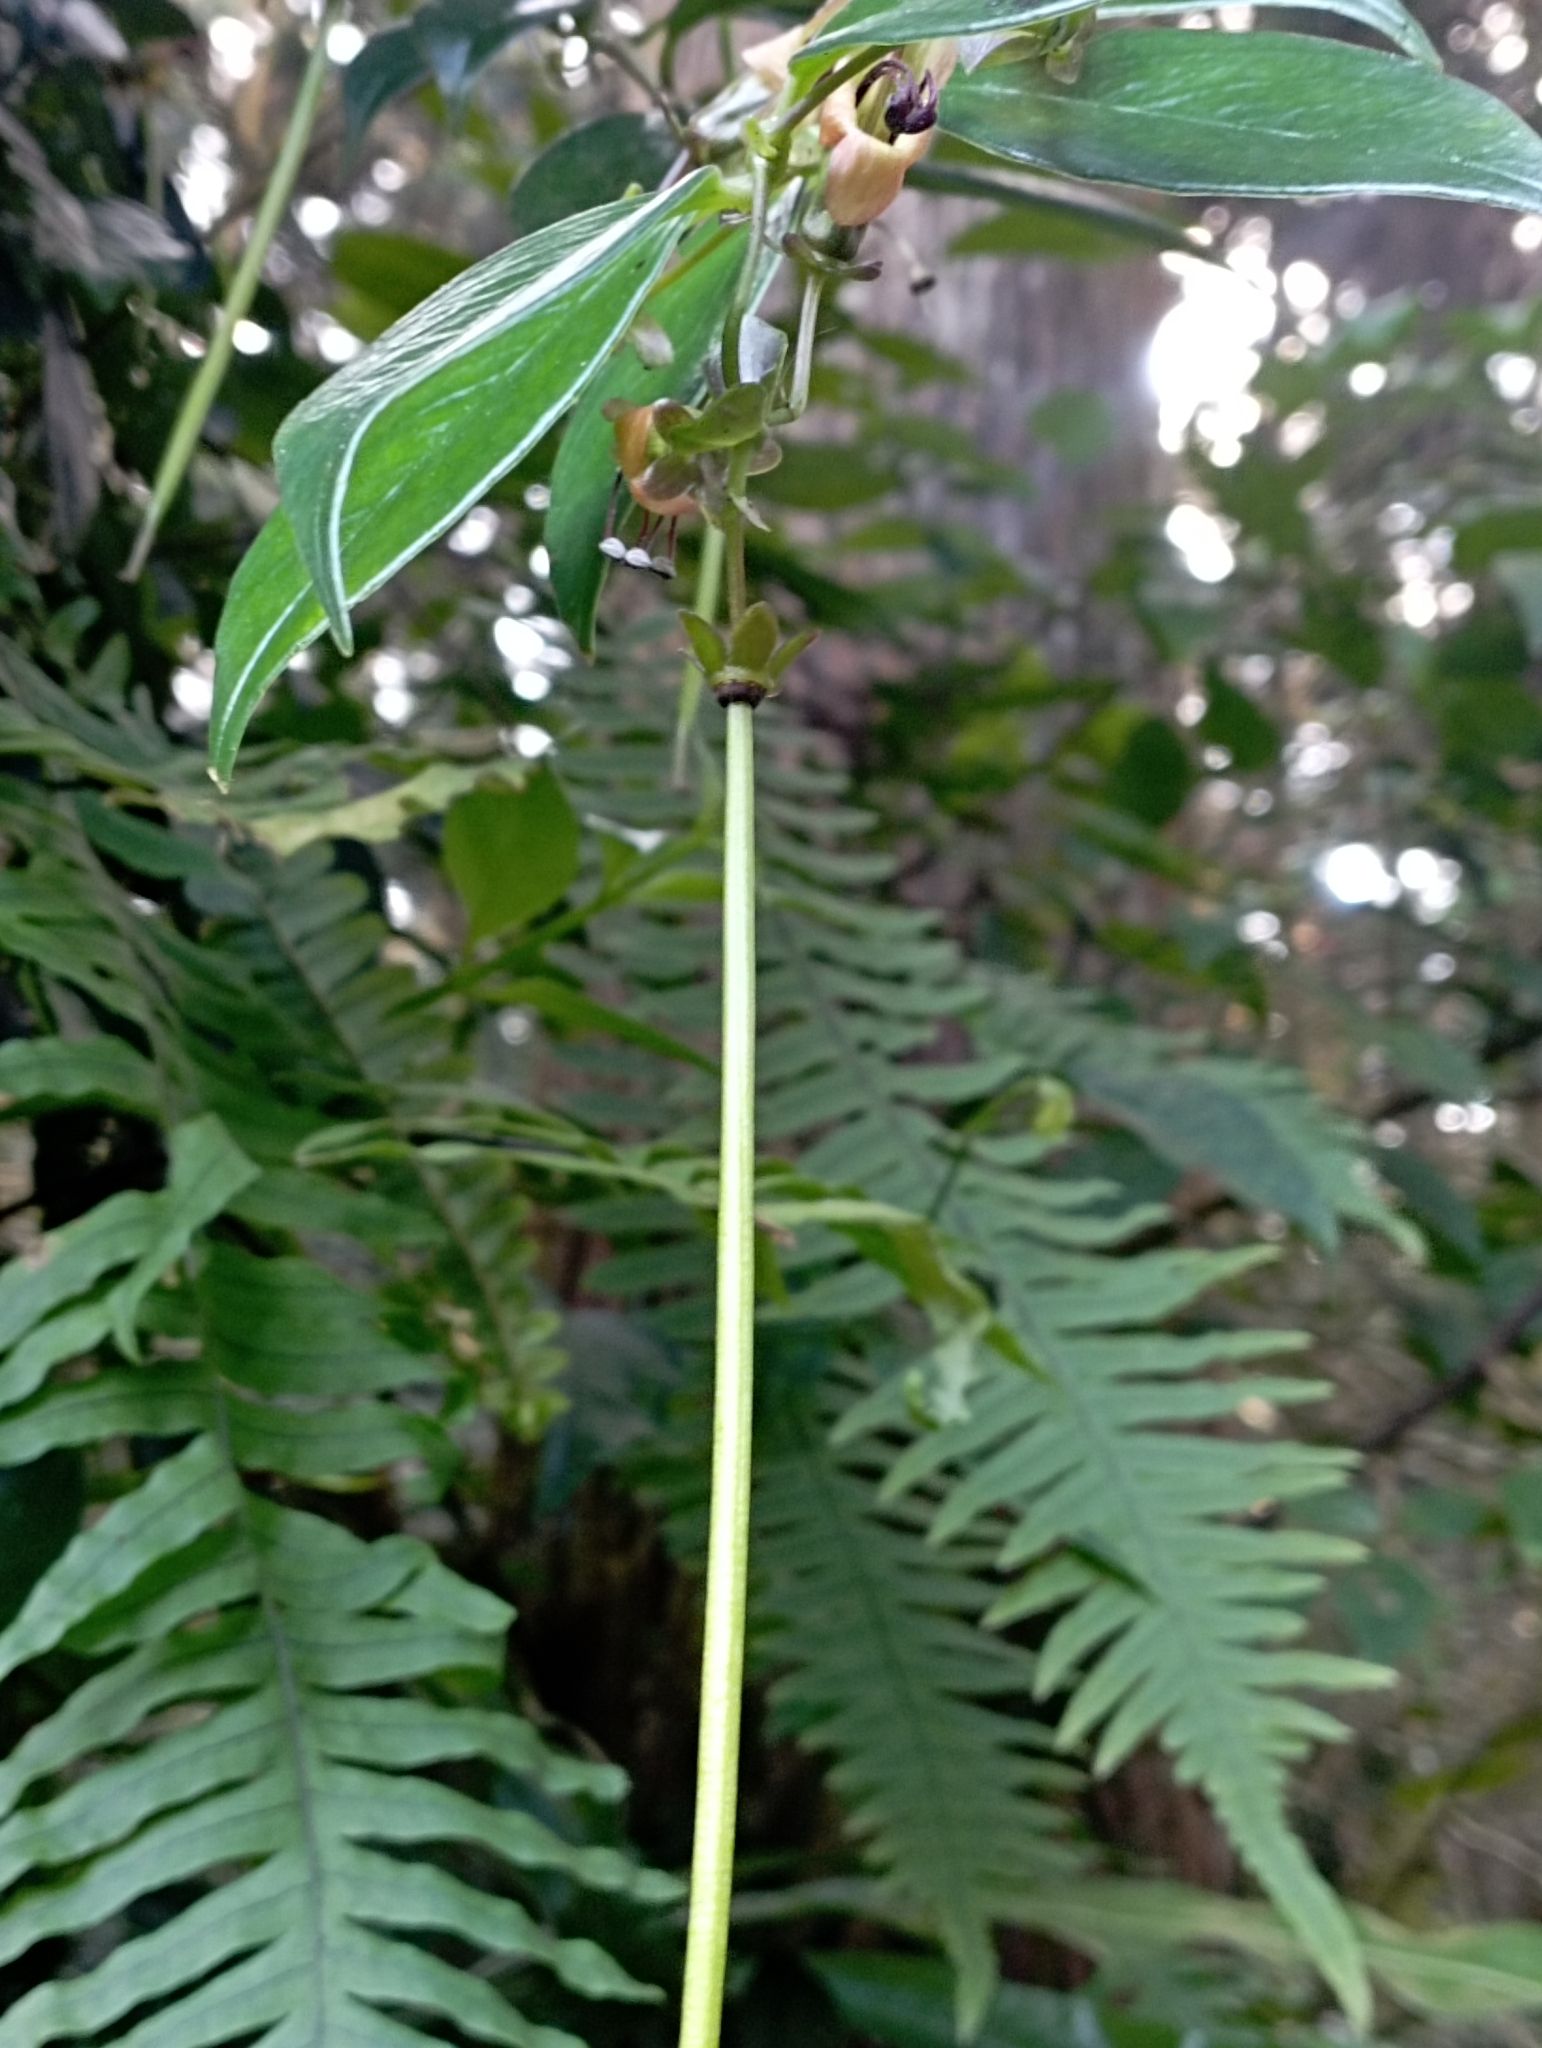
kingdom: Plantae
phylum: Tracheophyta
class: Magnoliopsida
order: Lamiales
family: Gesneriaceae
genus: Aeschynanthus
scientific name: Aeschynanthus acuminatus
